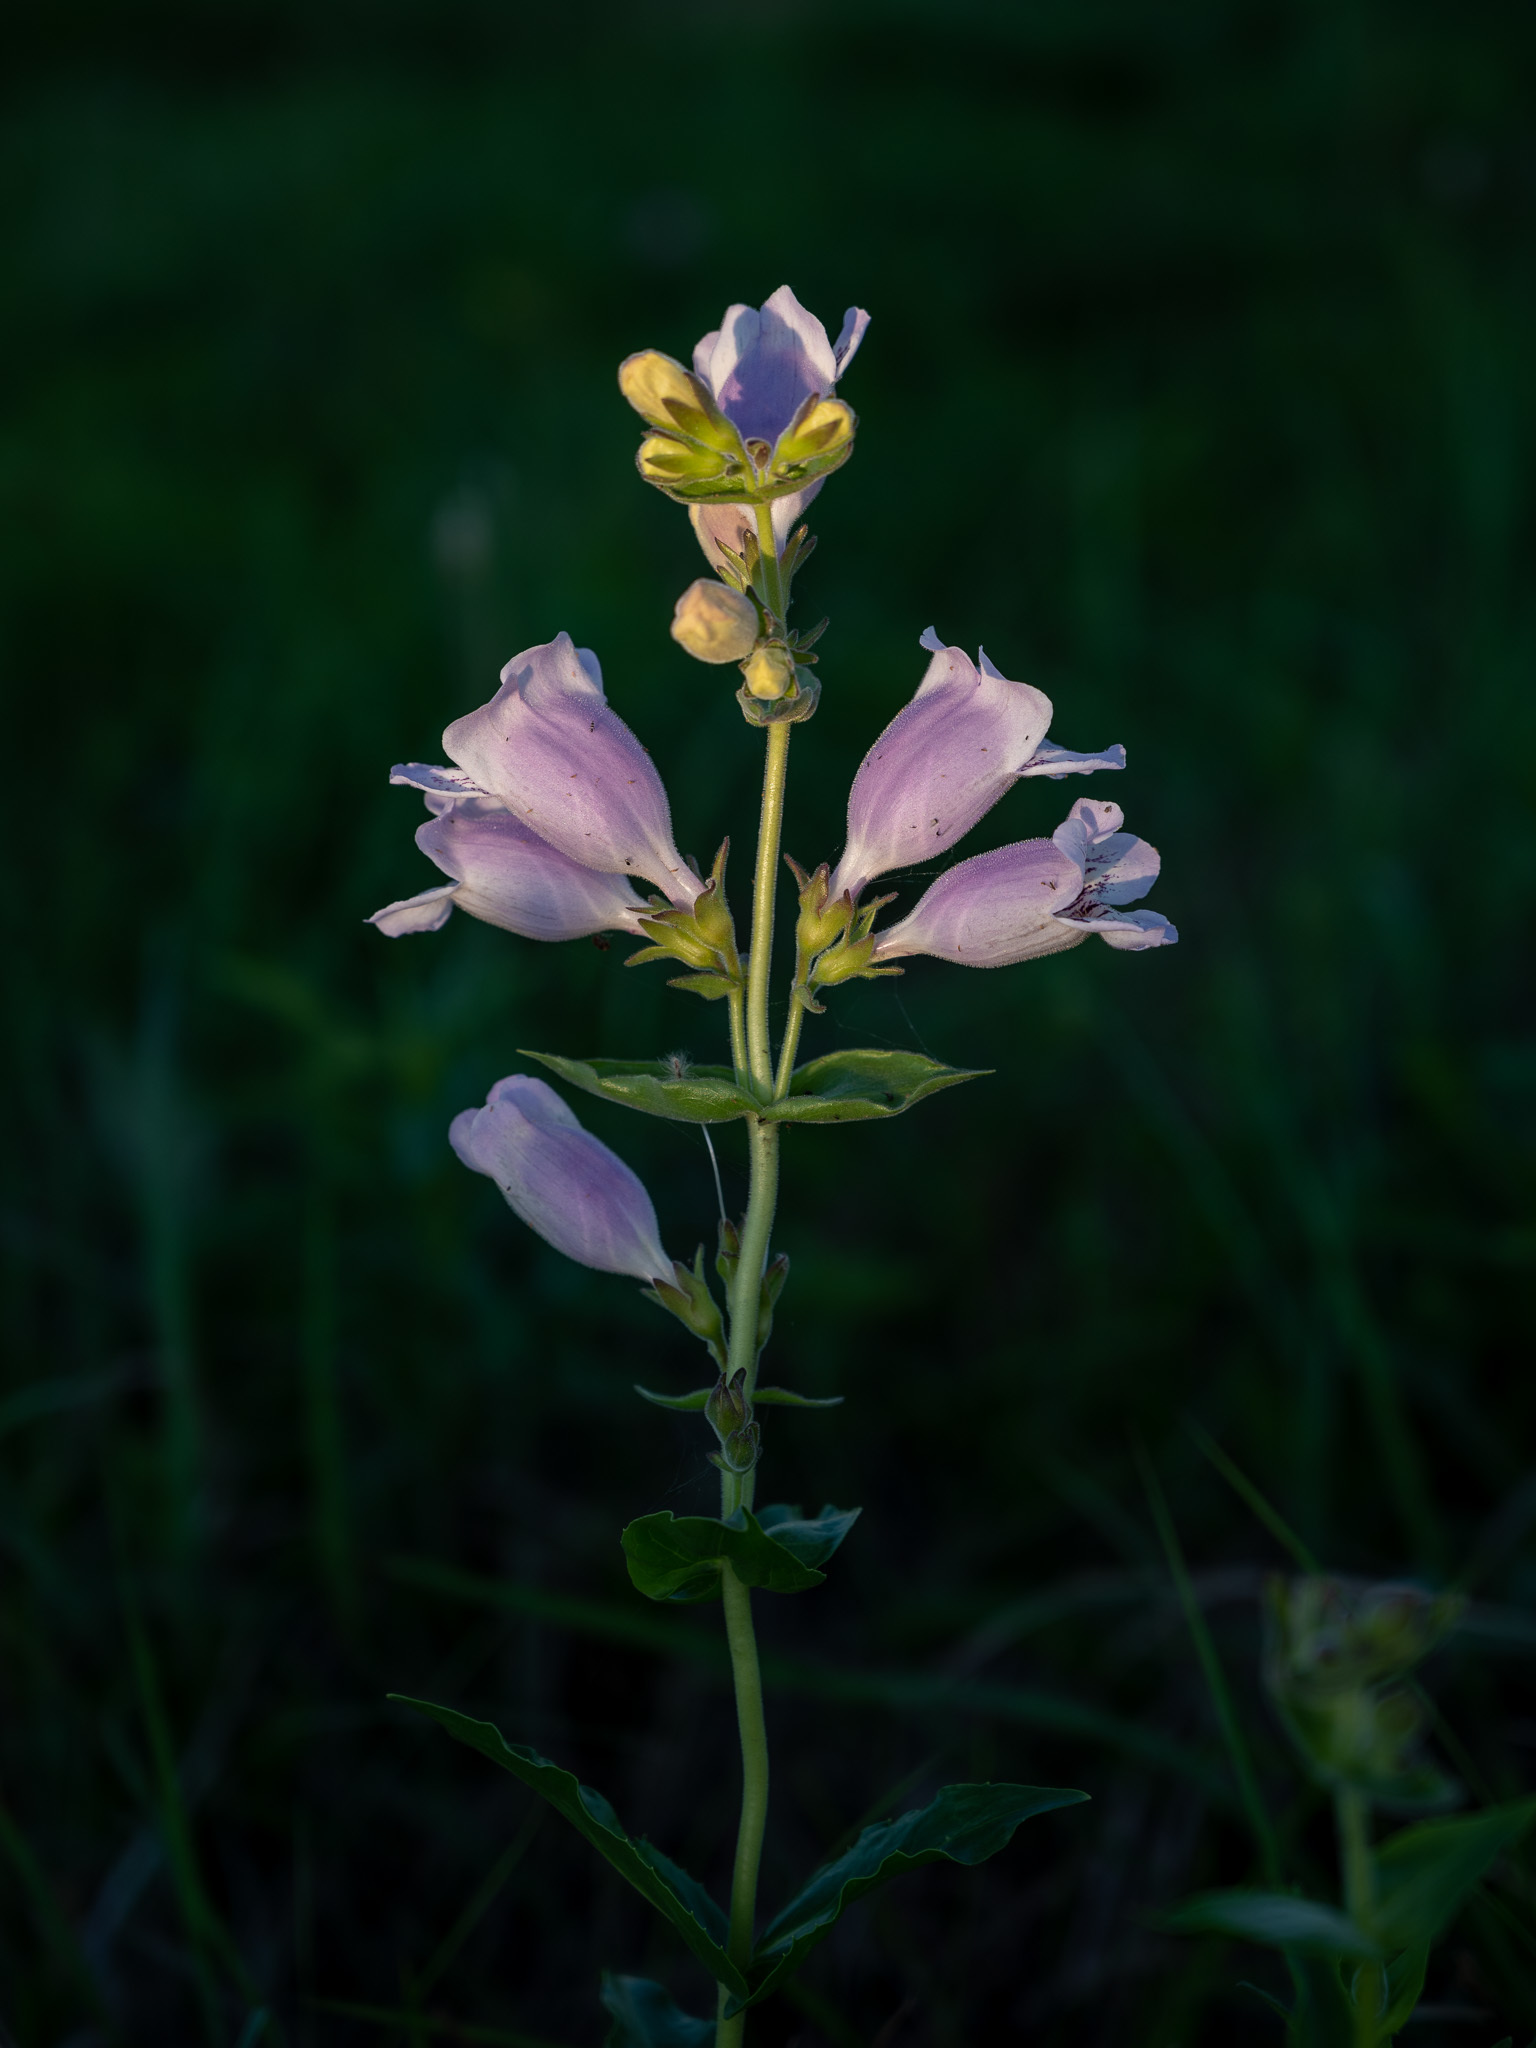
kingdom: Plantae
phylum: Tracheophyta
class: Magnoliopsida
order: Lamiales
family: Plantaginaceae
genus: Penstemon
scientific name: Penstemon cobaea
